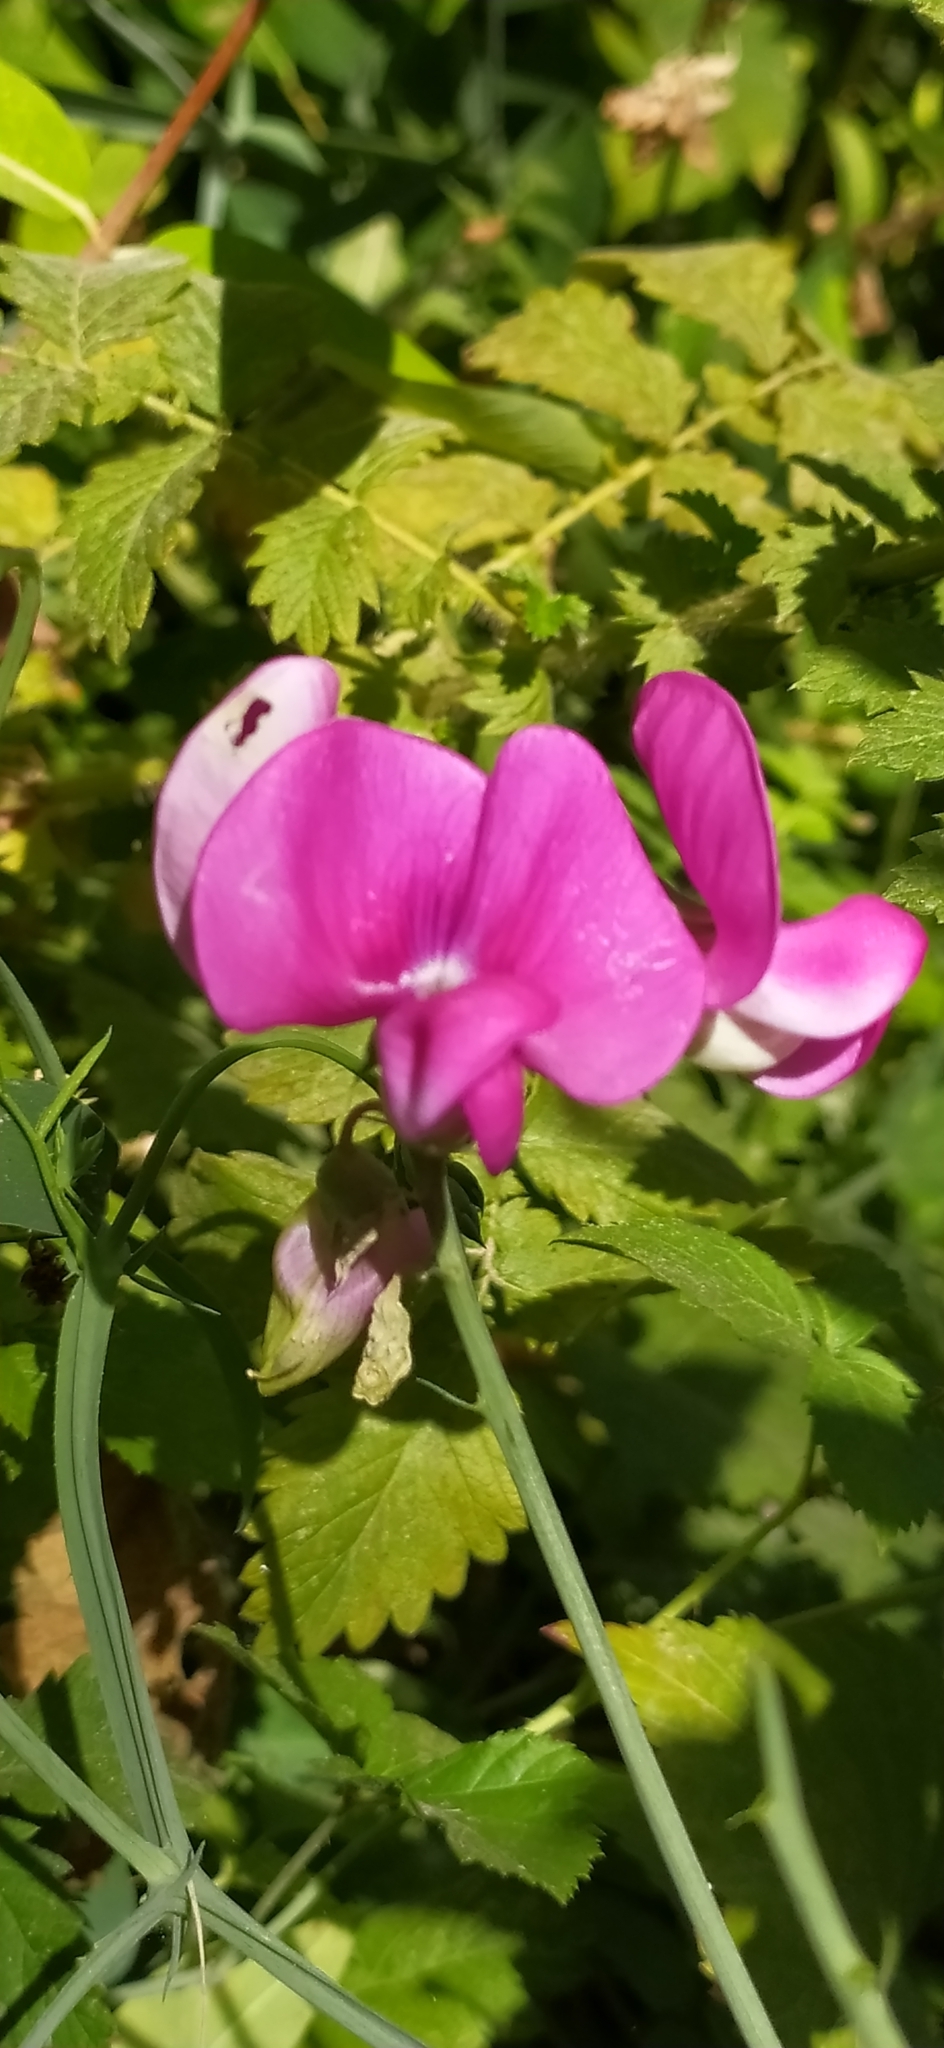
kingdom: Plantae
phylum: Tracheophyta
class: Magnoliopsida
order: Fabales
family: Fabaceae
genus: Lathyrus
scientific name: Lathyrus latifolius
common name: Perennial pea
